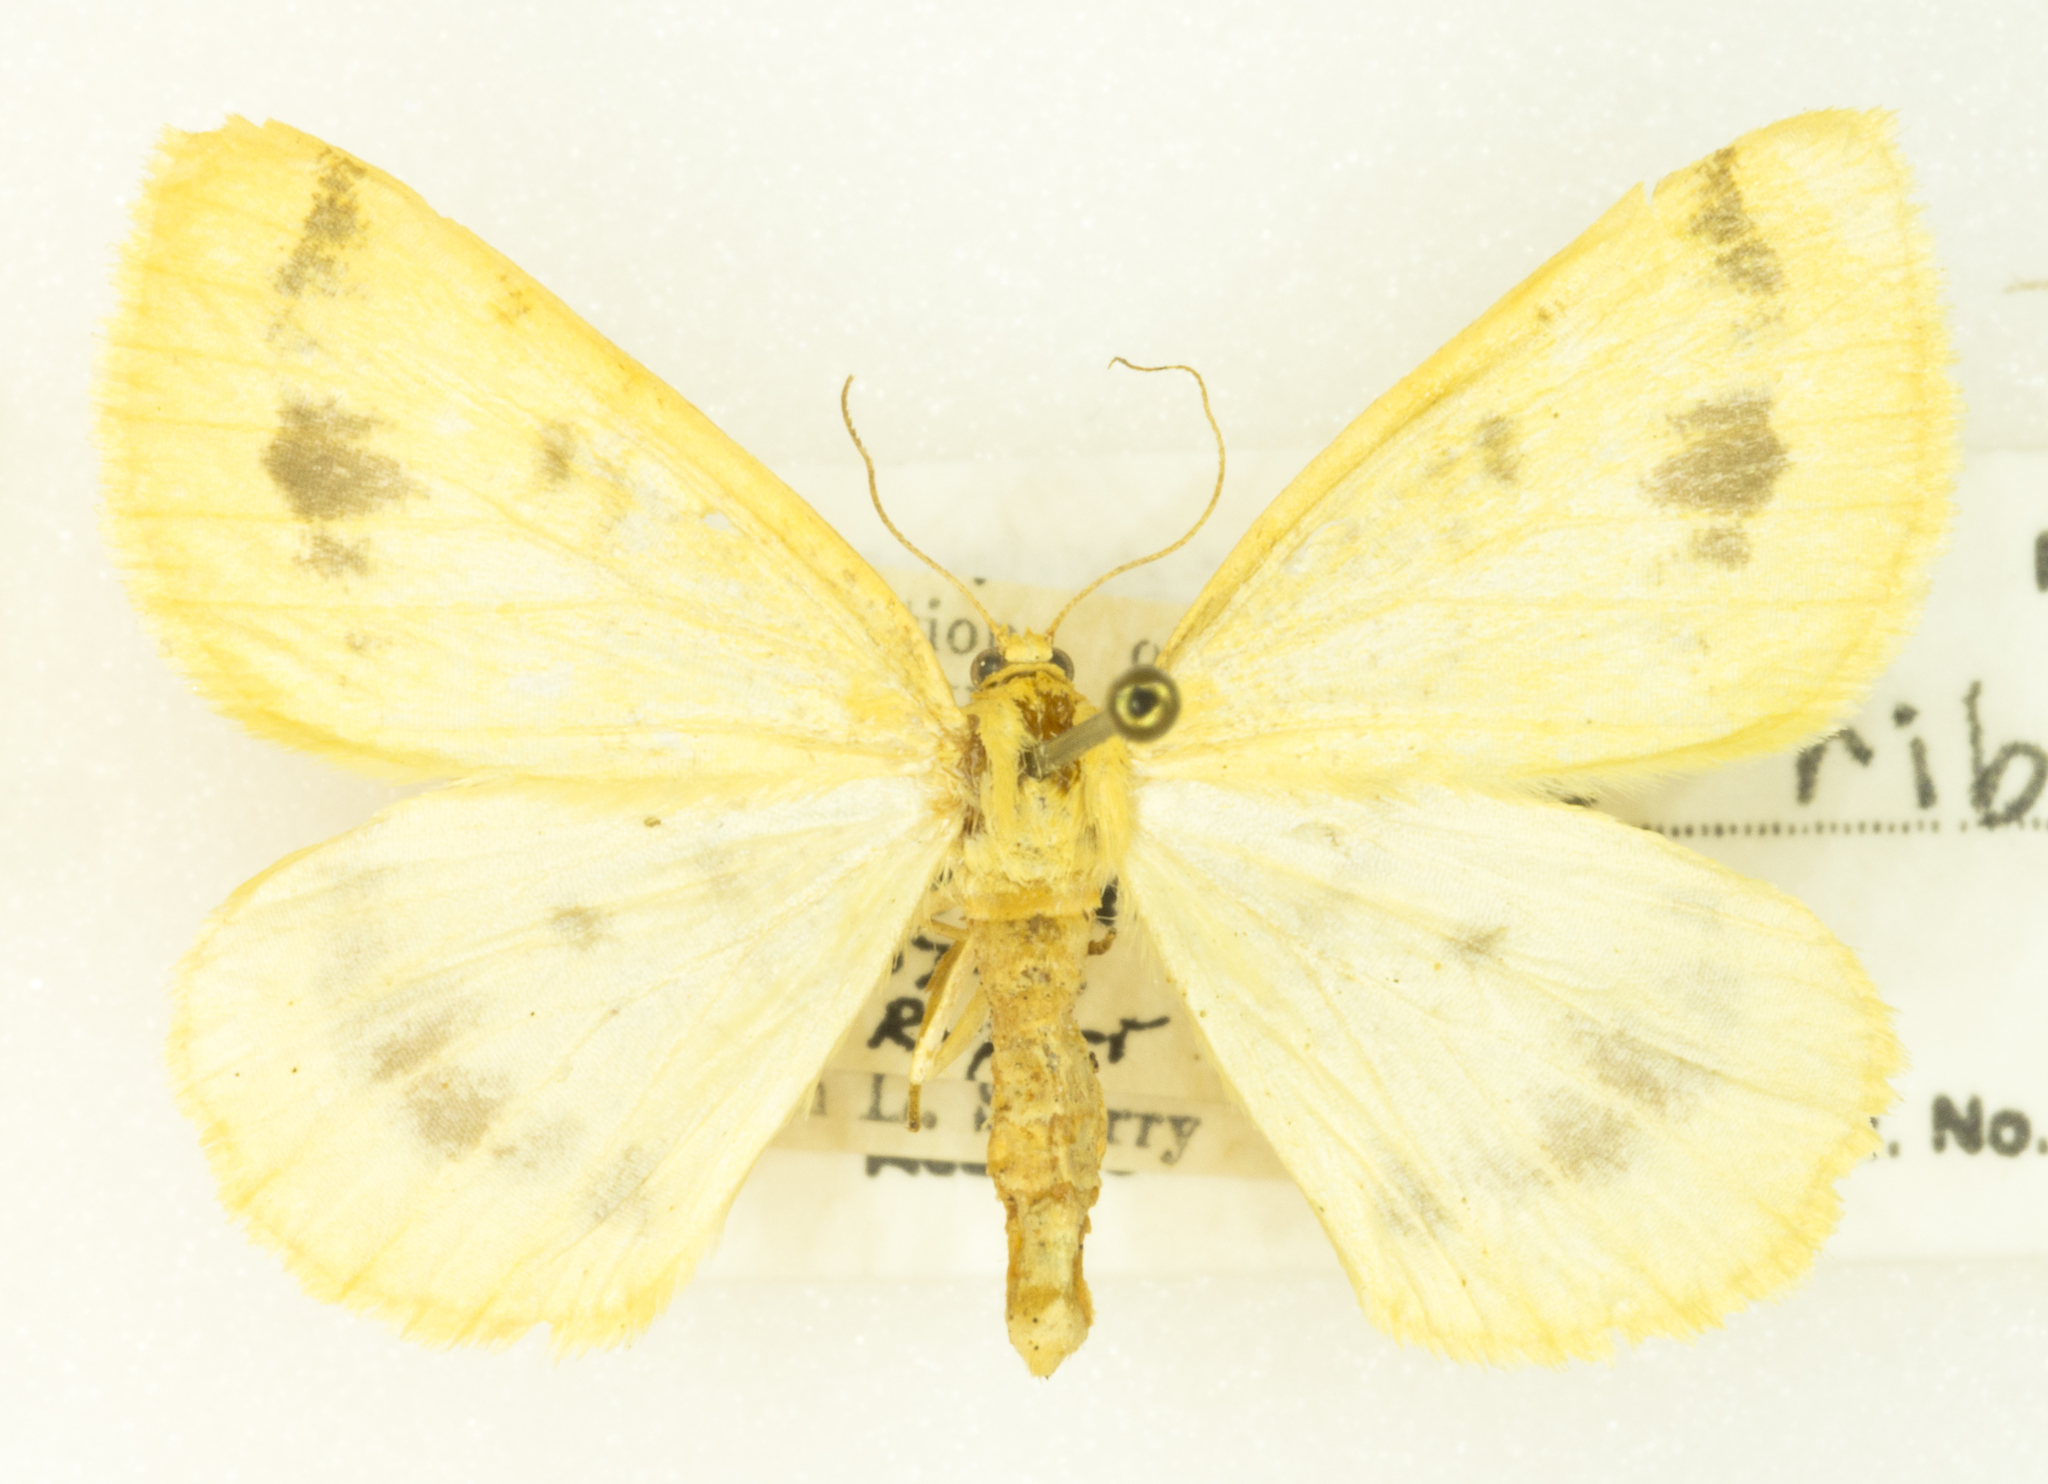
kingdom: Animalia
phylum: Arthropoda
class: Insecta
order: Lepidoptera
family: Geometridae
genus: Macaria
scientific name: Macaria ribearia
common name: Currant spanworm moth
